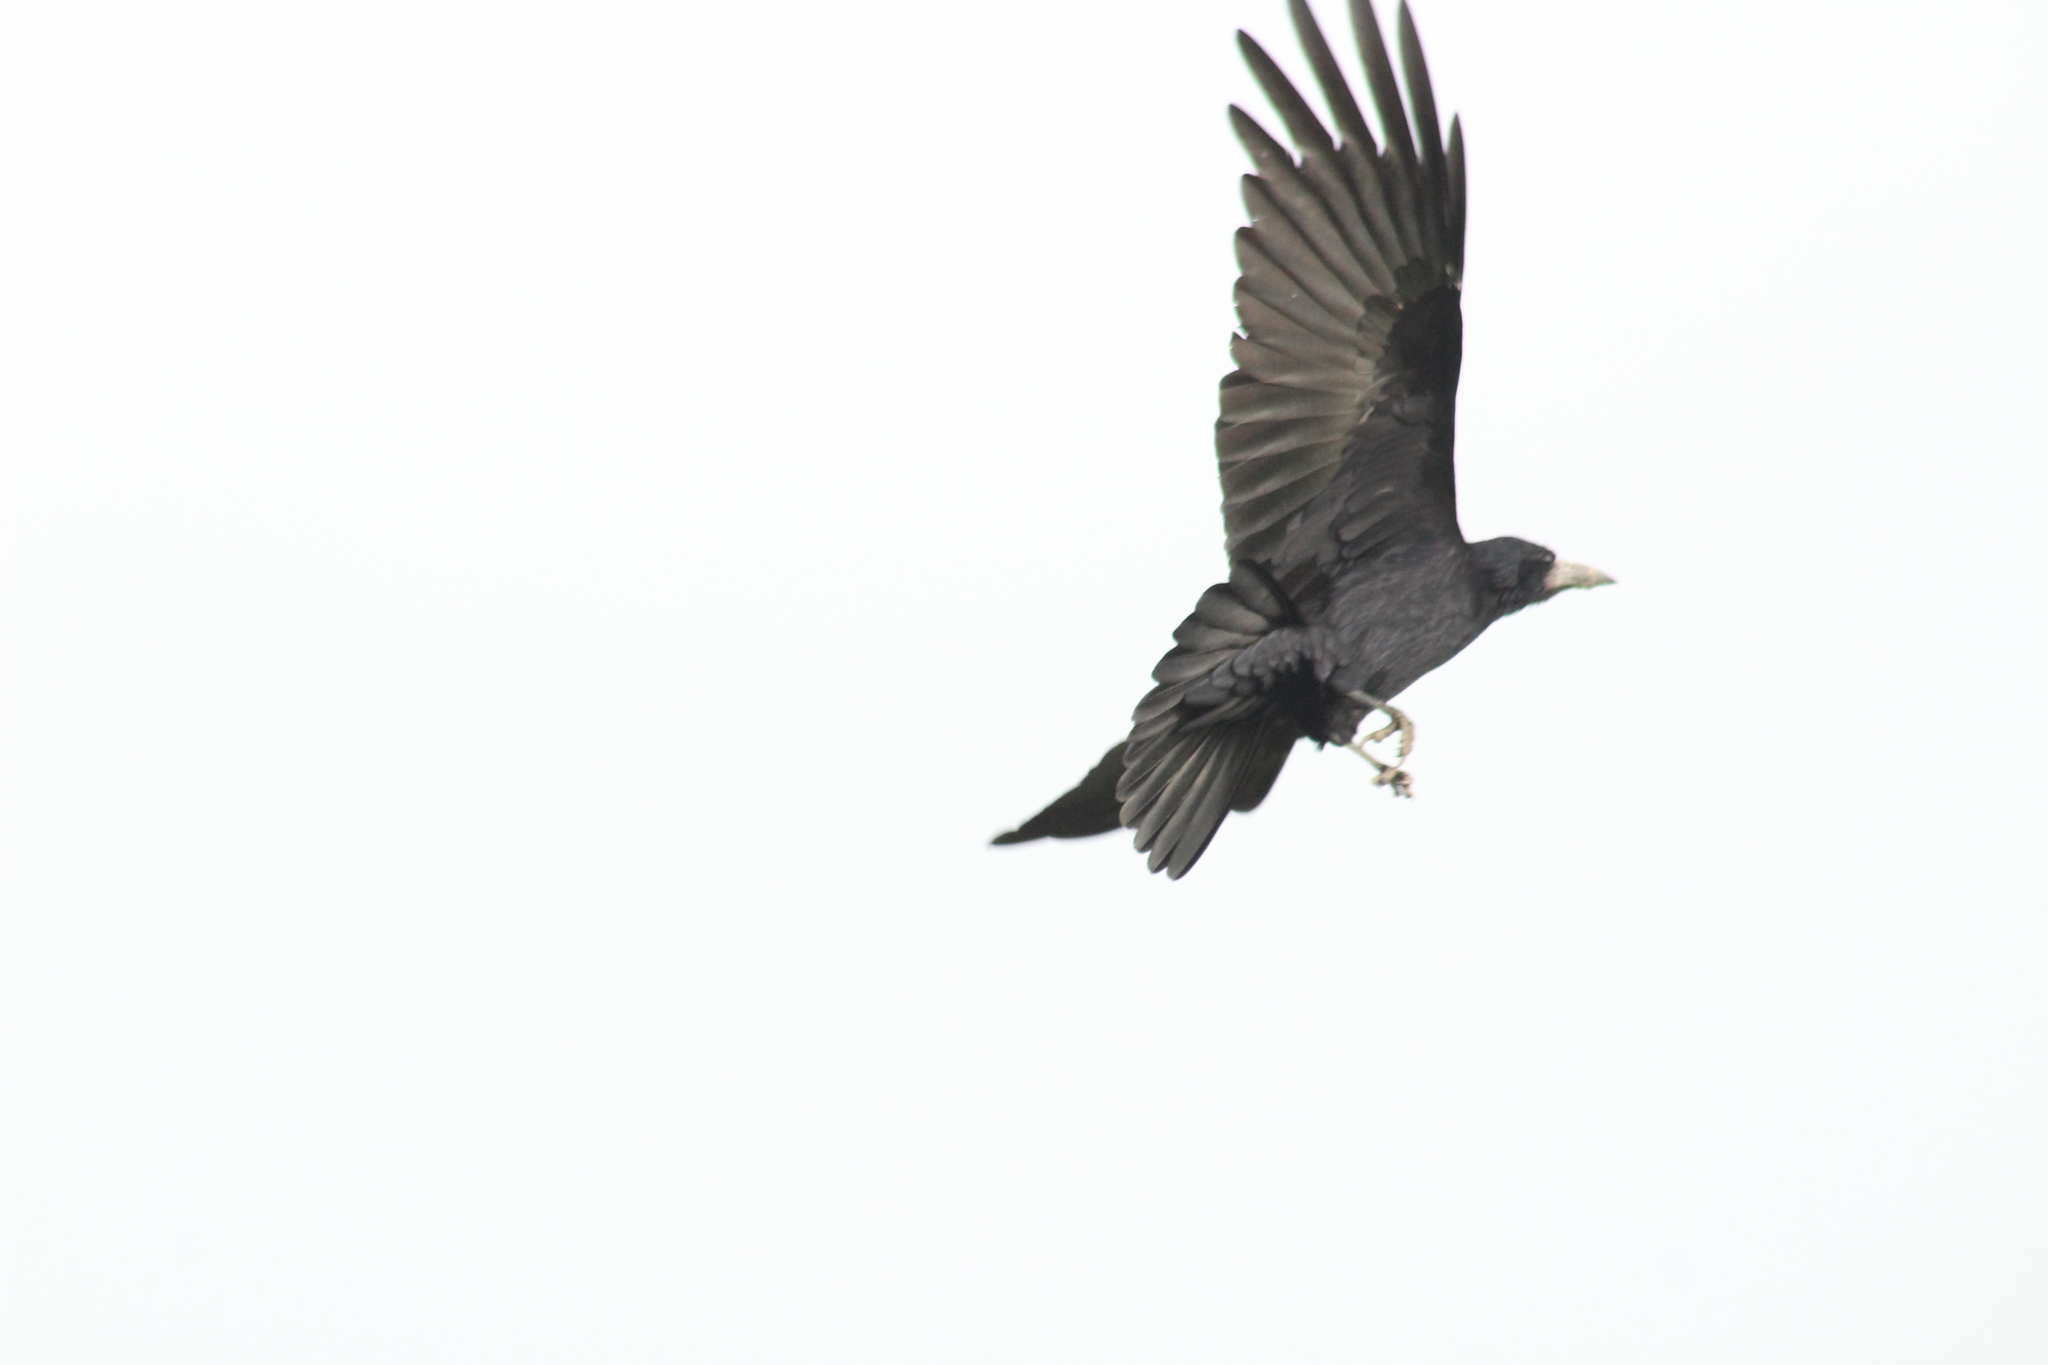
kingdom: Animalia
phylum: Chordata
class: Aves
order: Passeriformes
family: Corvidae
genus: Corvus
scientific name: Corvus frugilegus
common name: Rook
